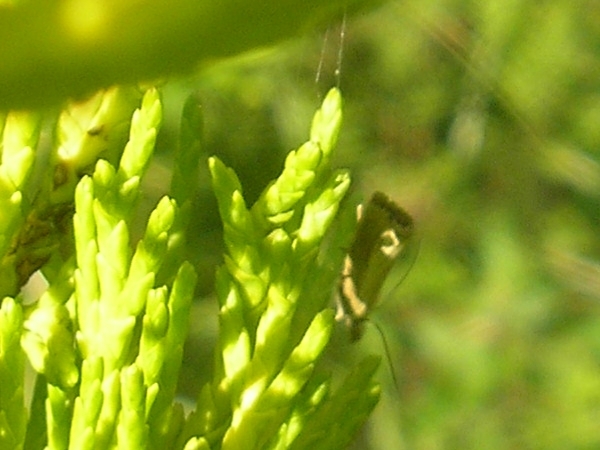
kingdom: Animalia
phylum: Arthropoda
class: Insecta
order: Lepidoptera
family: Crambidae
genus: Agriphila
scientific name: Agriphila straminella
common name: Straw grass-veneer
